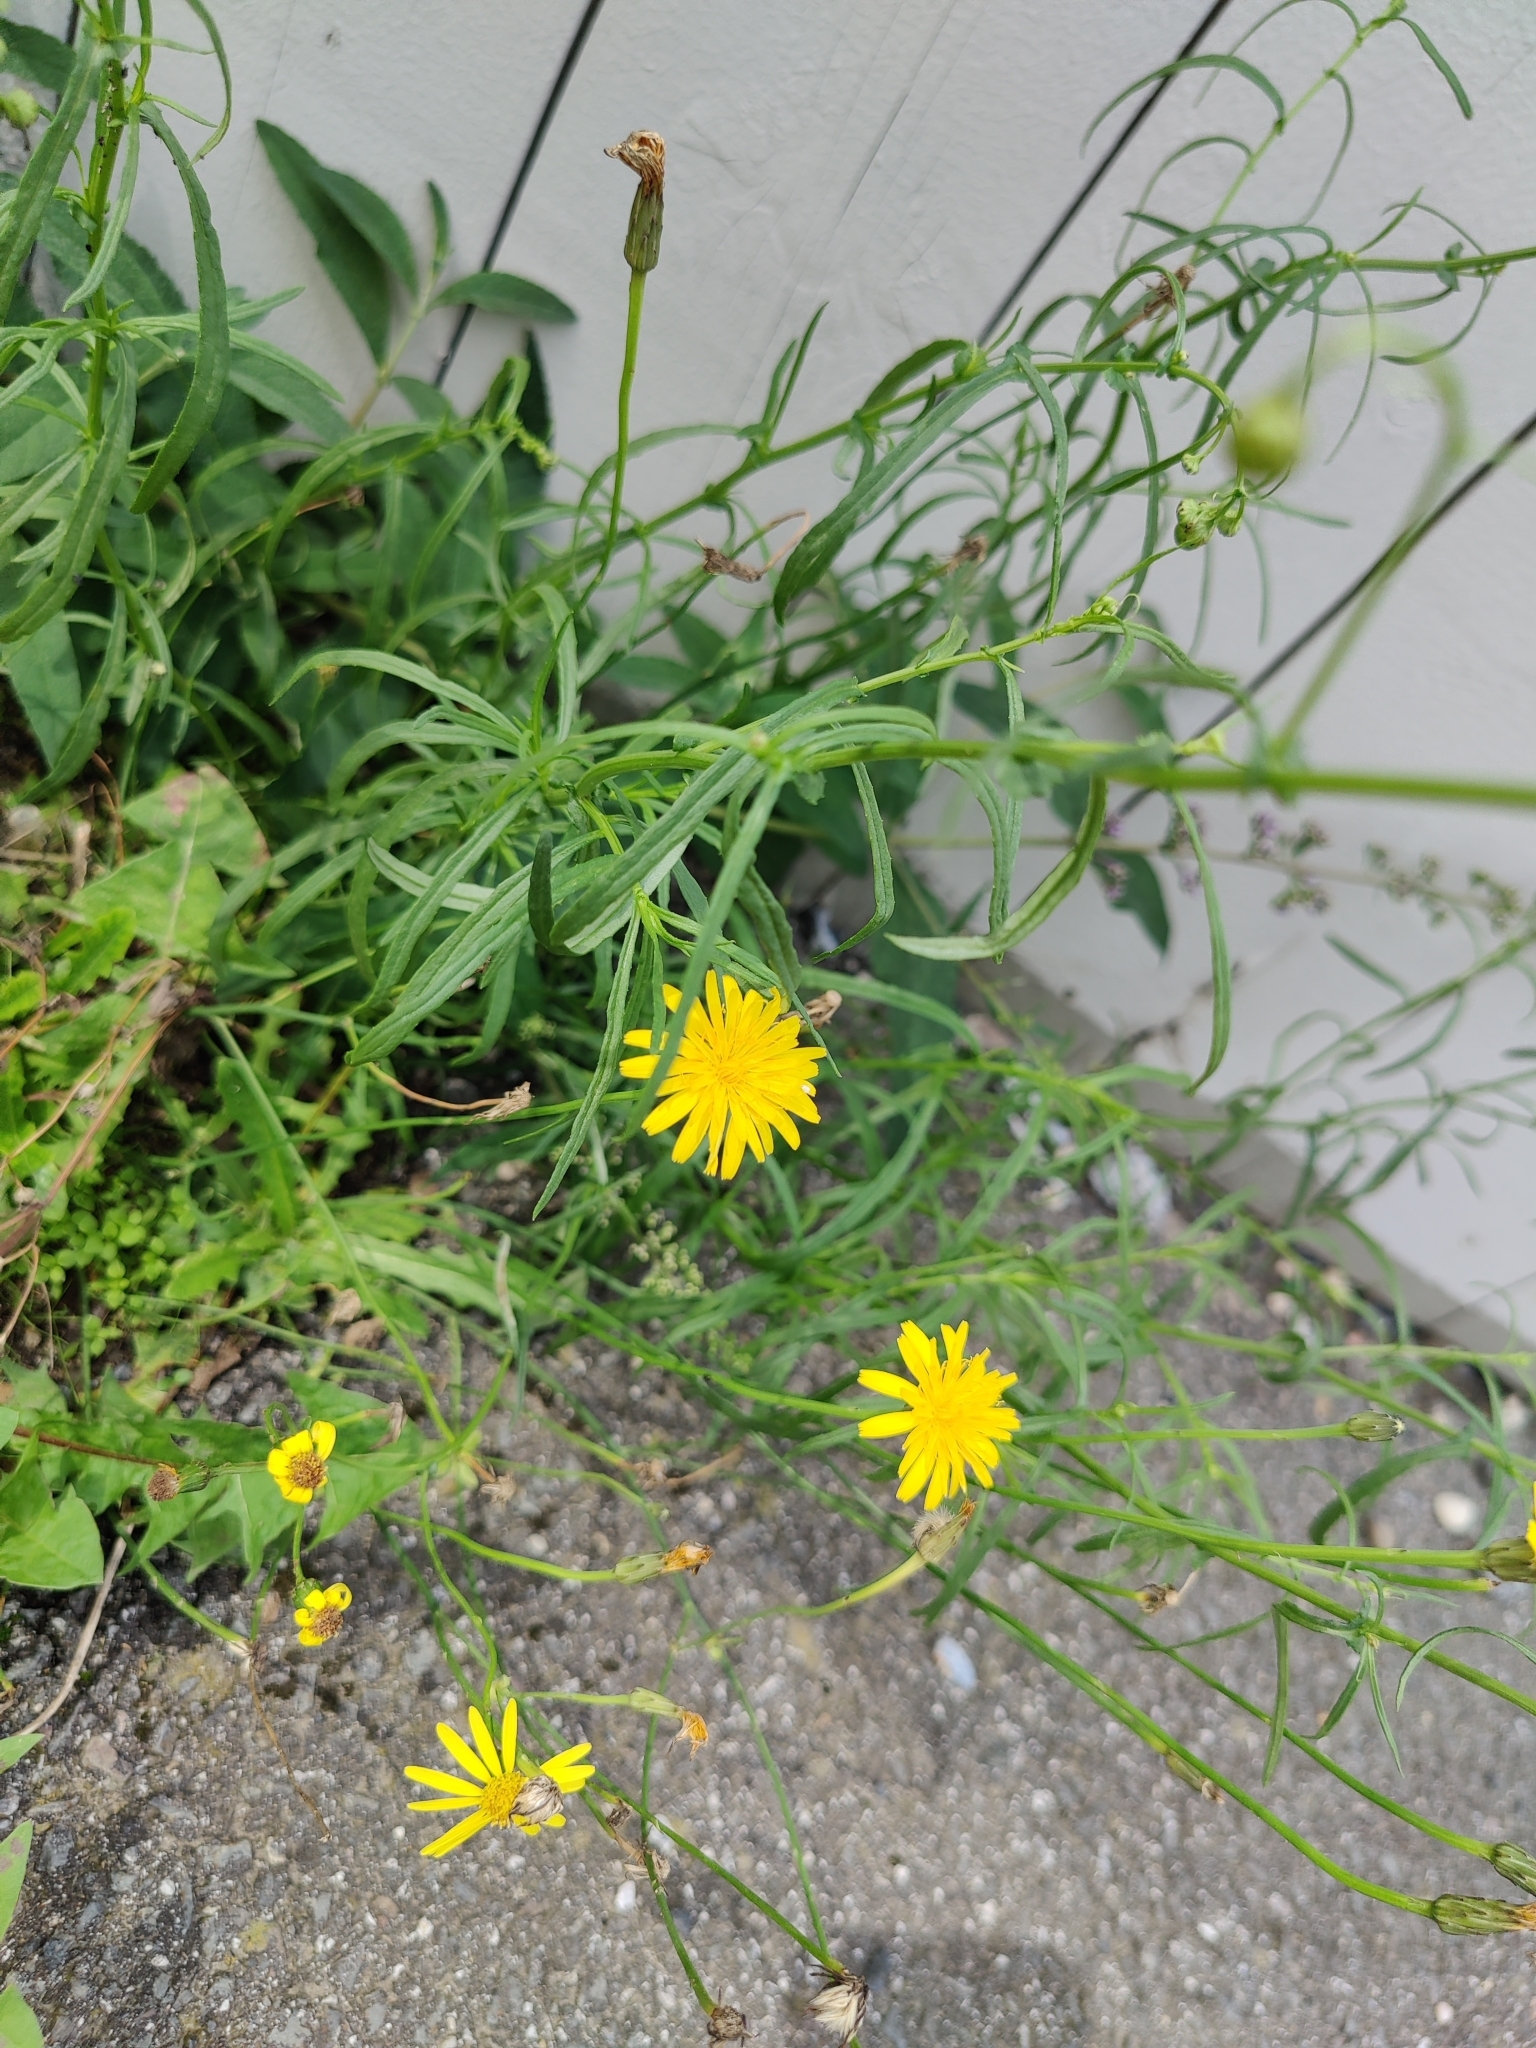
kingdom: Plantae
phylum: Tracheophyta
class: Magnoliopsida
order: Asterales
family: Asteraceae
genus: Senecio
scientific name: Senecio inaequidens
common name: Narrow-leaved ragwort
